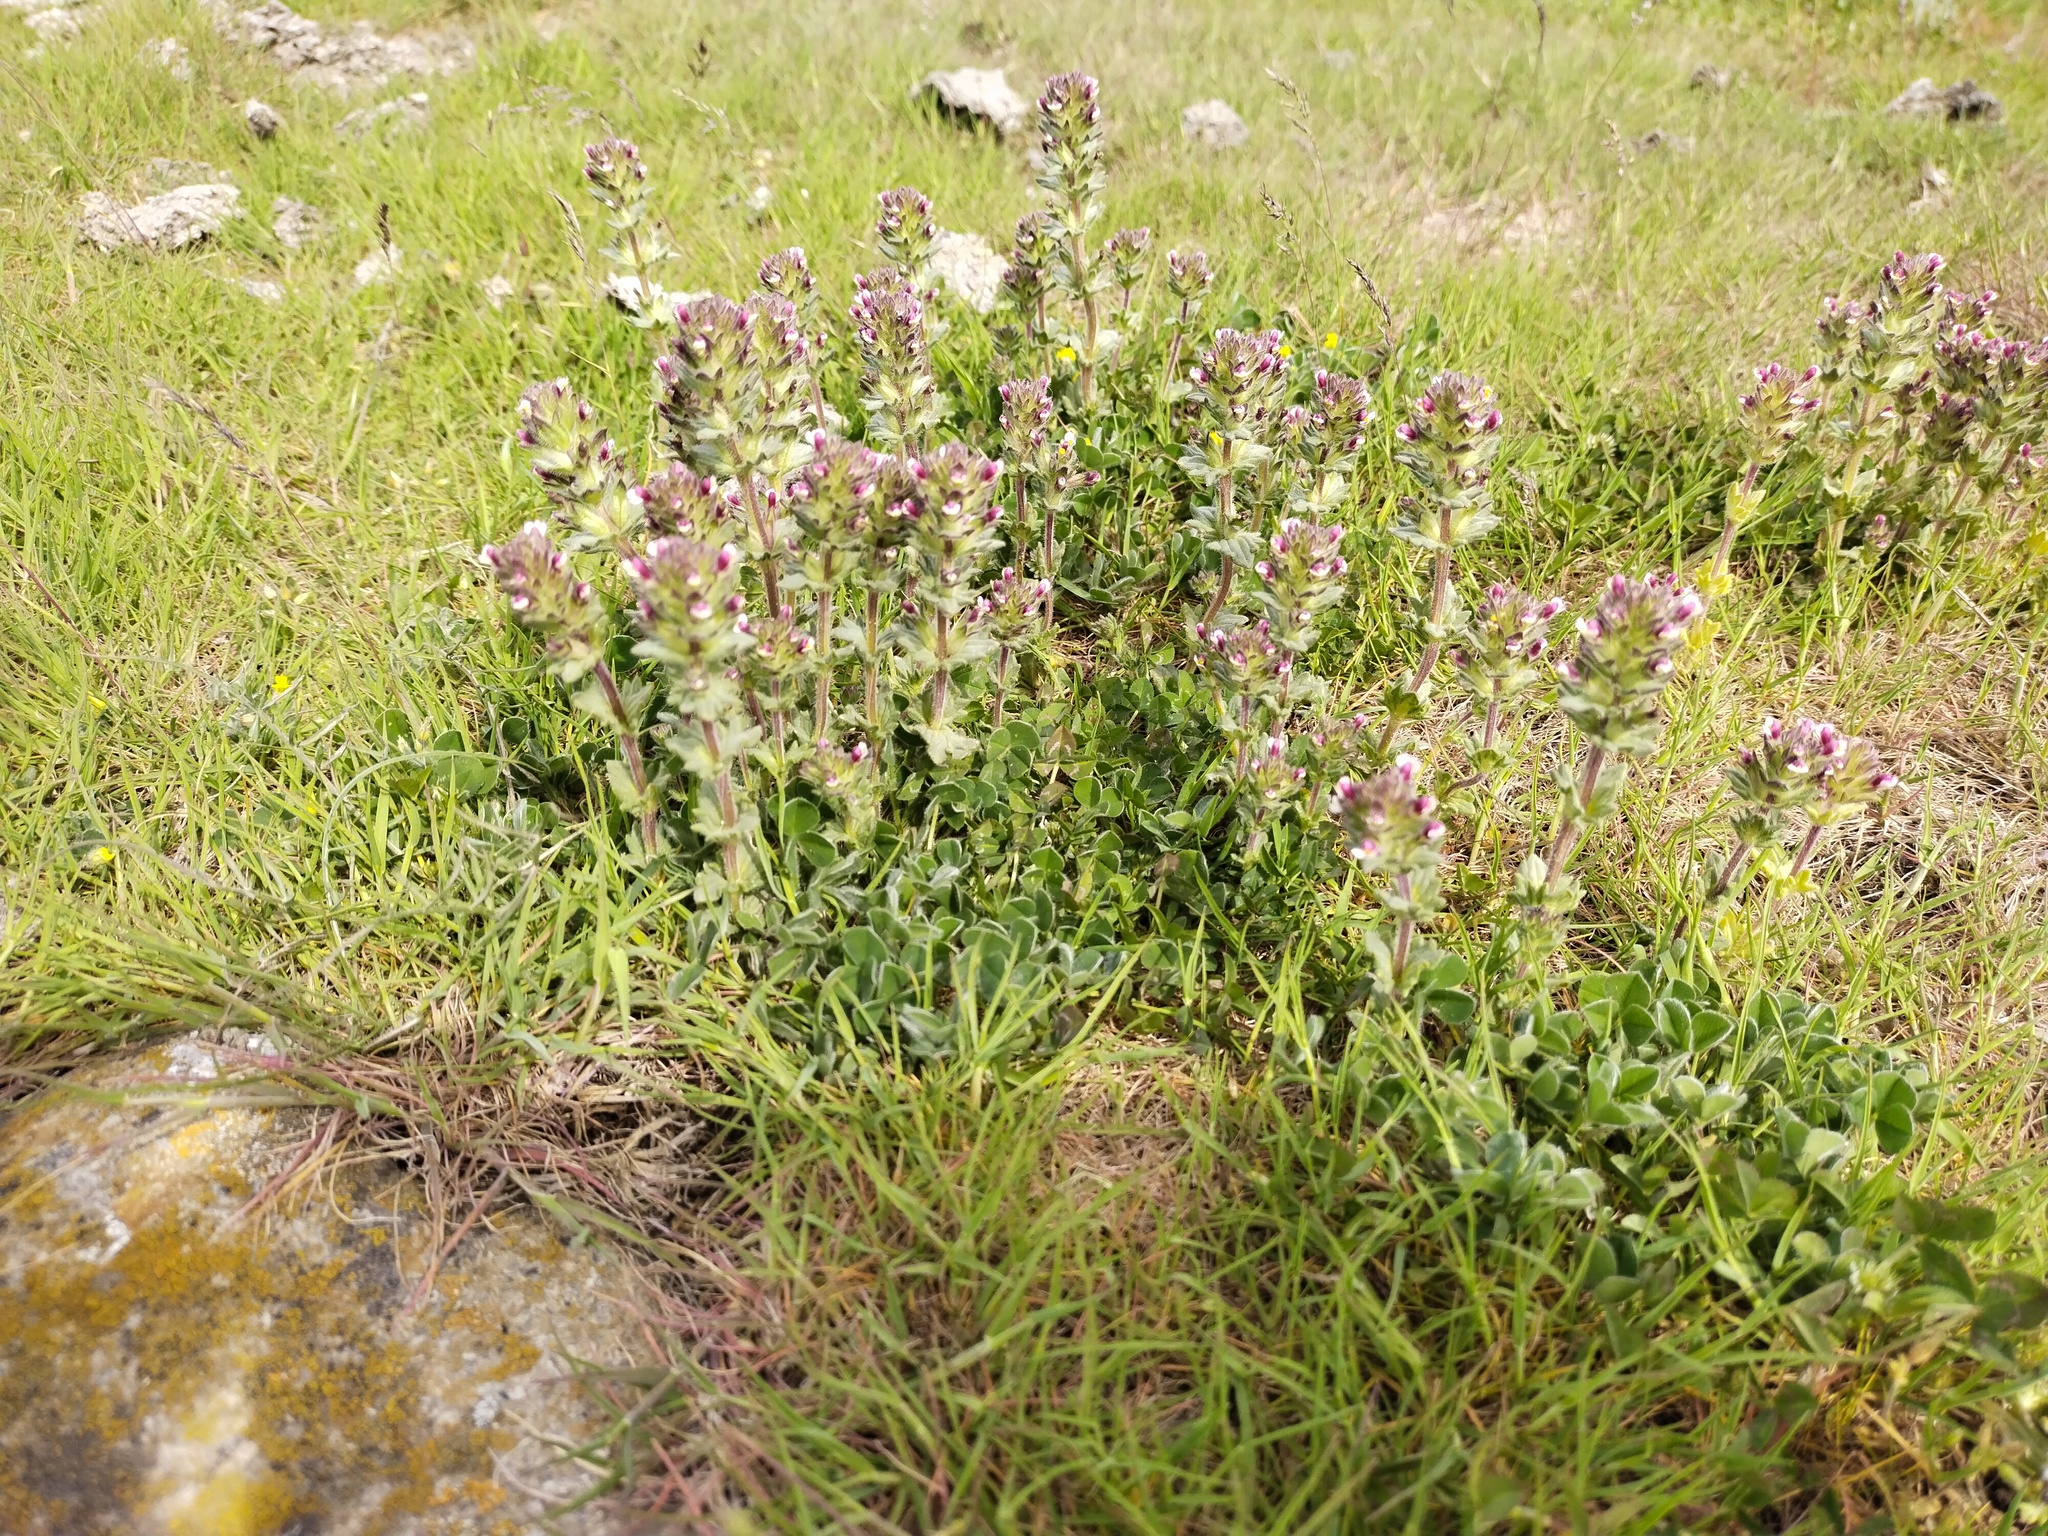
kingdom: Plantae
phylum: Tracheophyta
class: Magnoliopsida
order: Lamiales
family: Orobanchaceae
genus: Parentucellia
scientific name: Parentucellia latifolia
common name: Broadleaf glandweed
